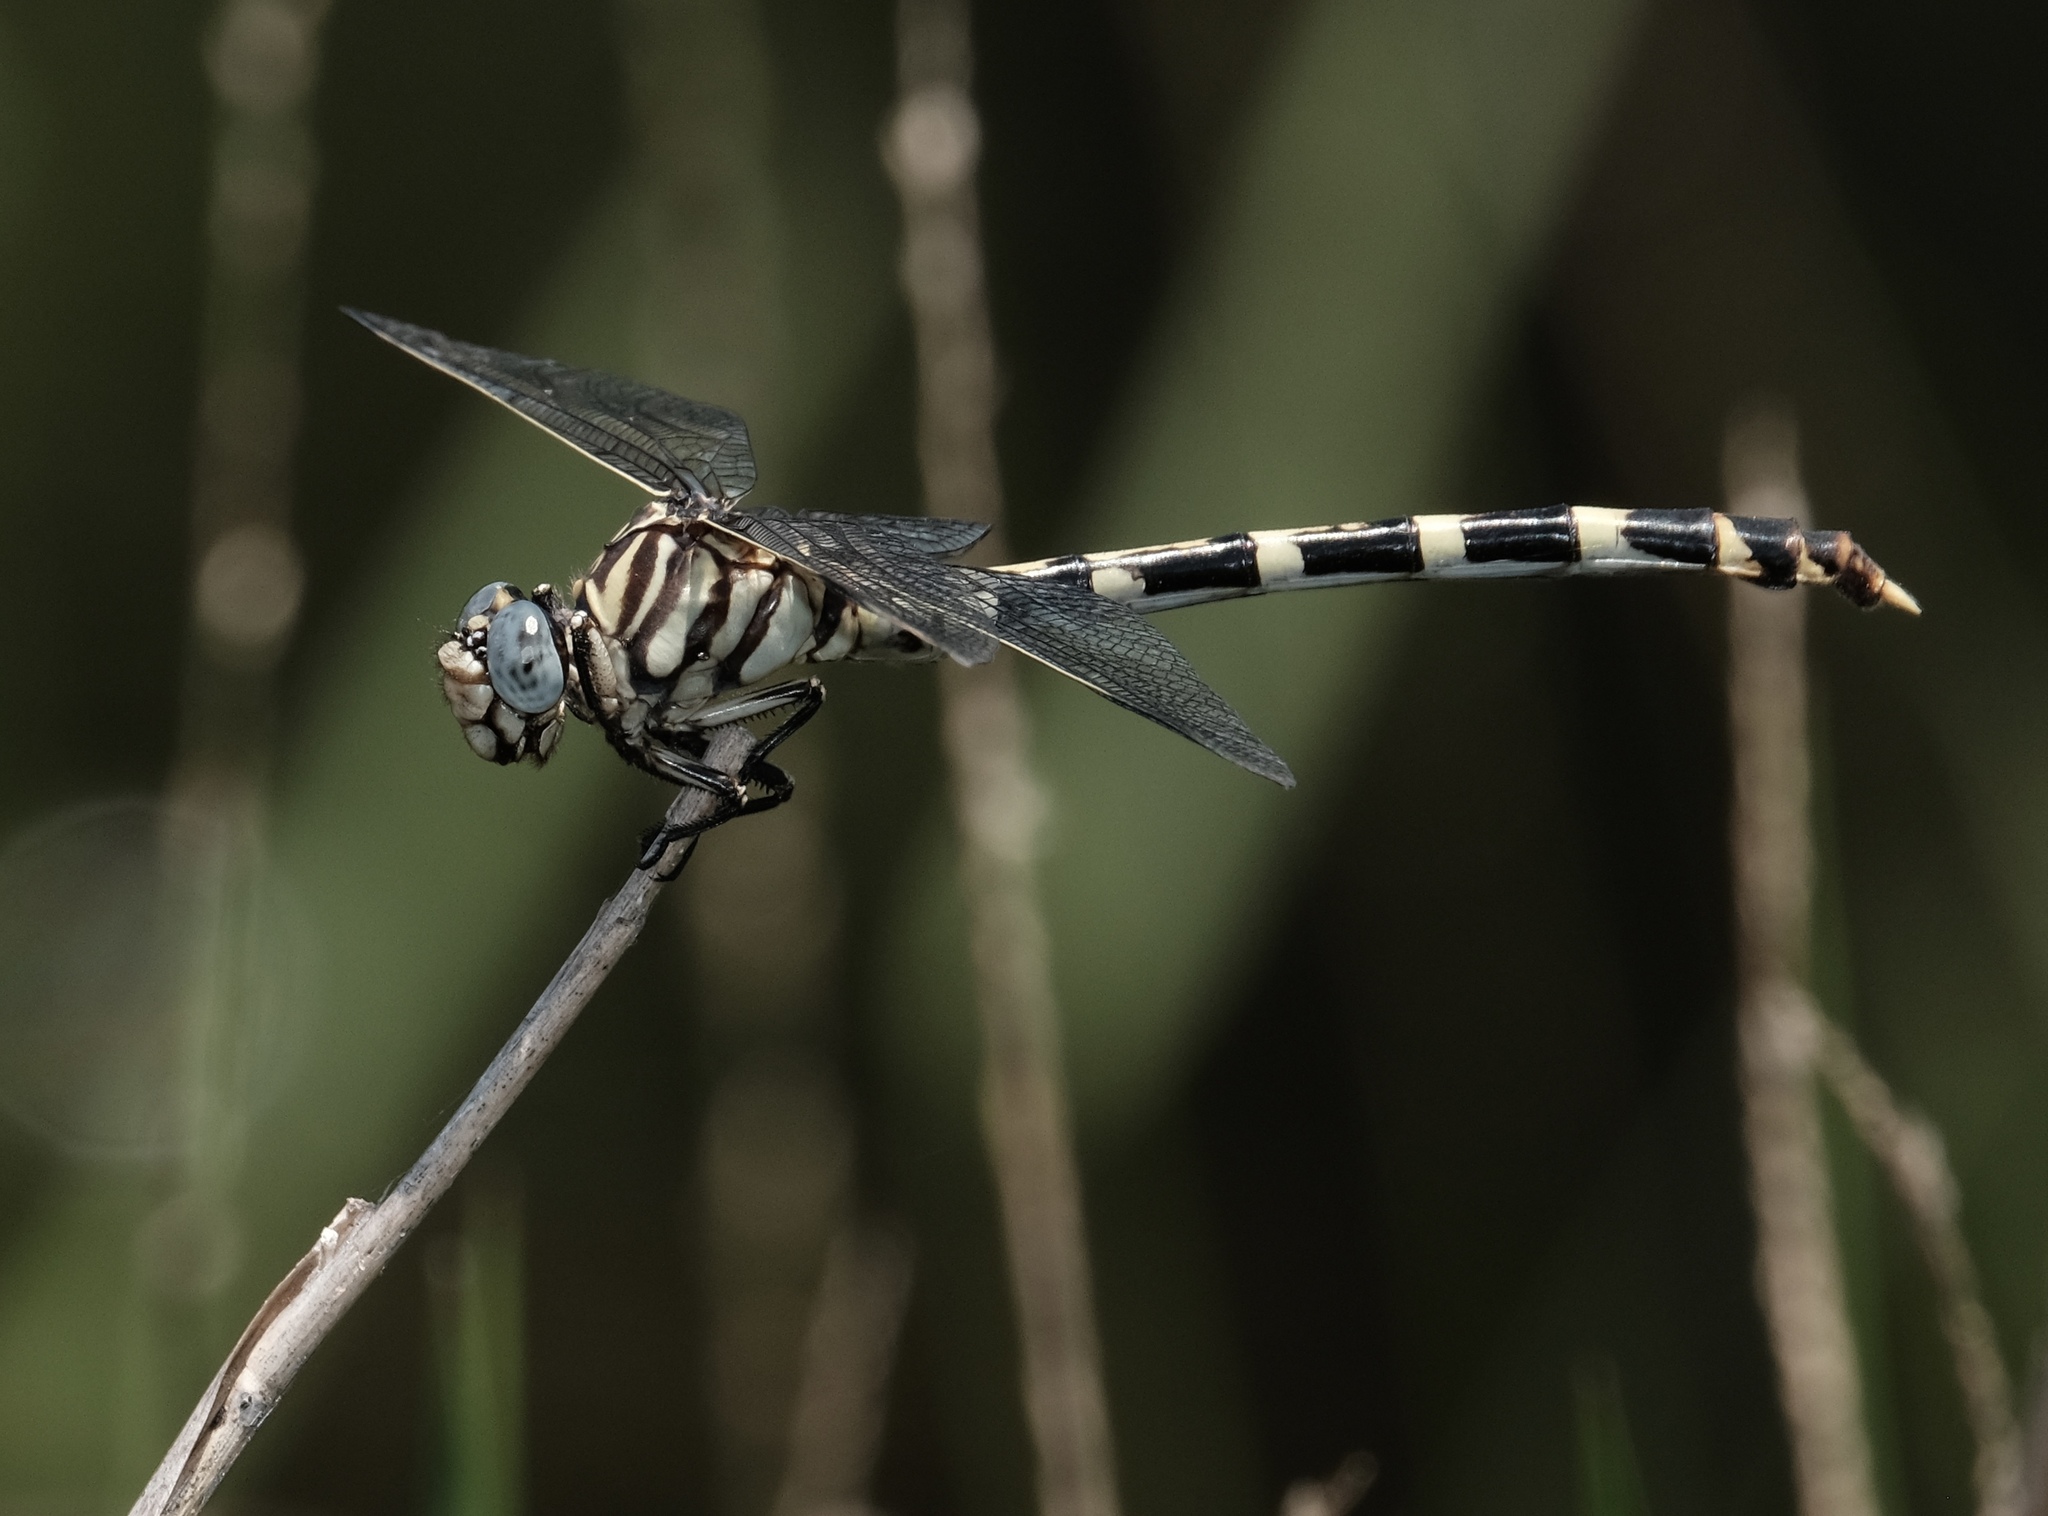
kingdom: Animalia
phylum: Arthropoda
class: Insecta
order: Odonata
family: Gomphidae
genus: Phyllogomphoides
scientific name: Phyllogomphoides stigmatus
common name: Four-striped leaftail
